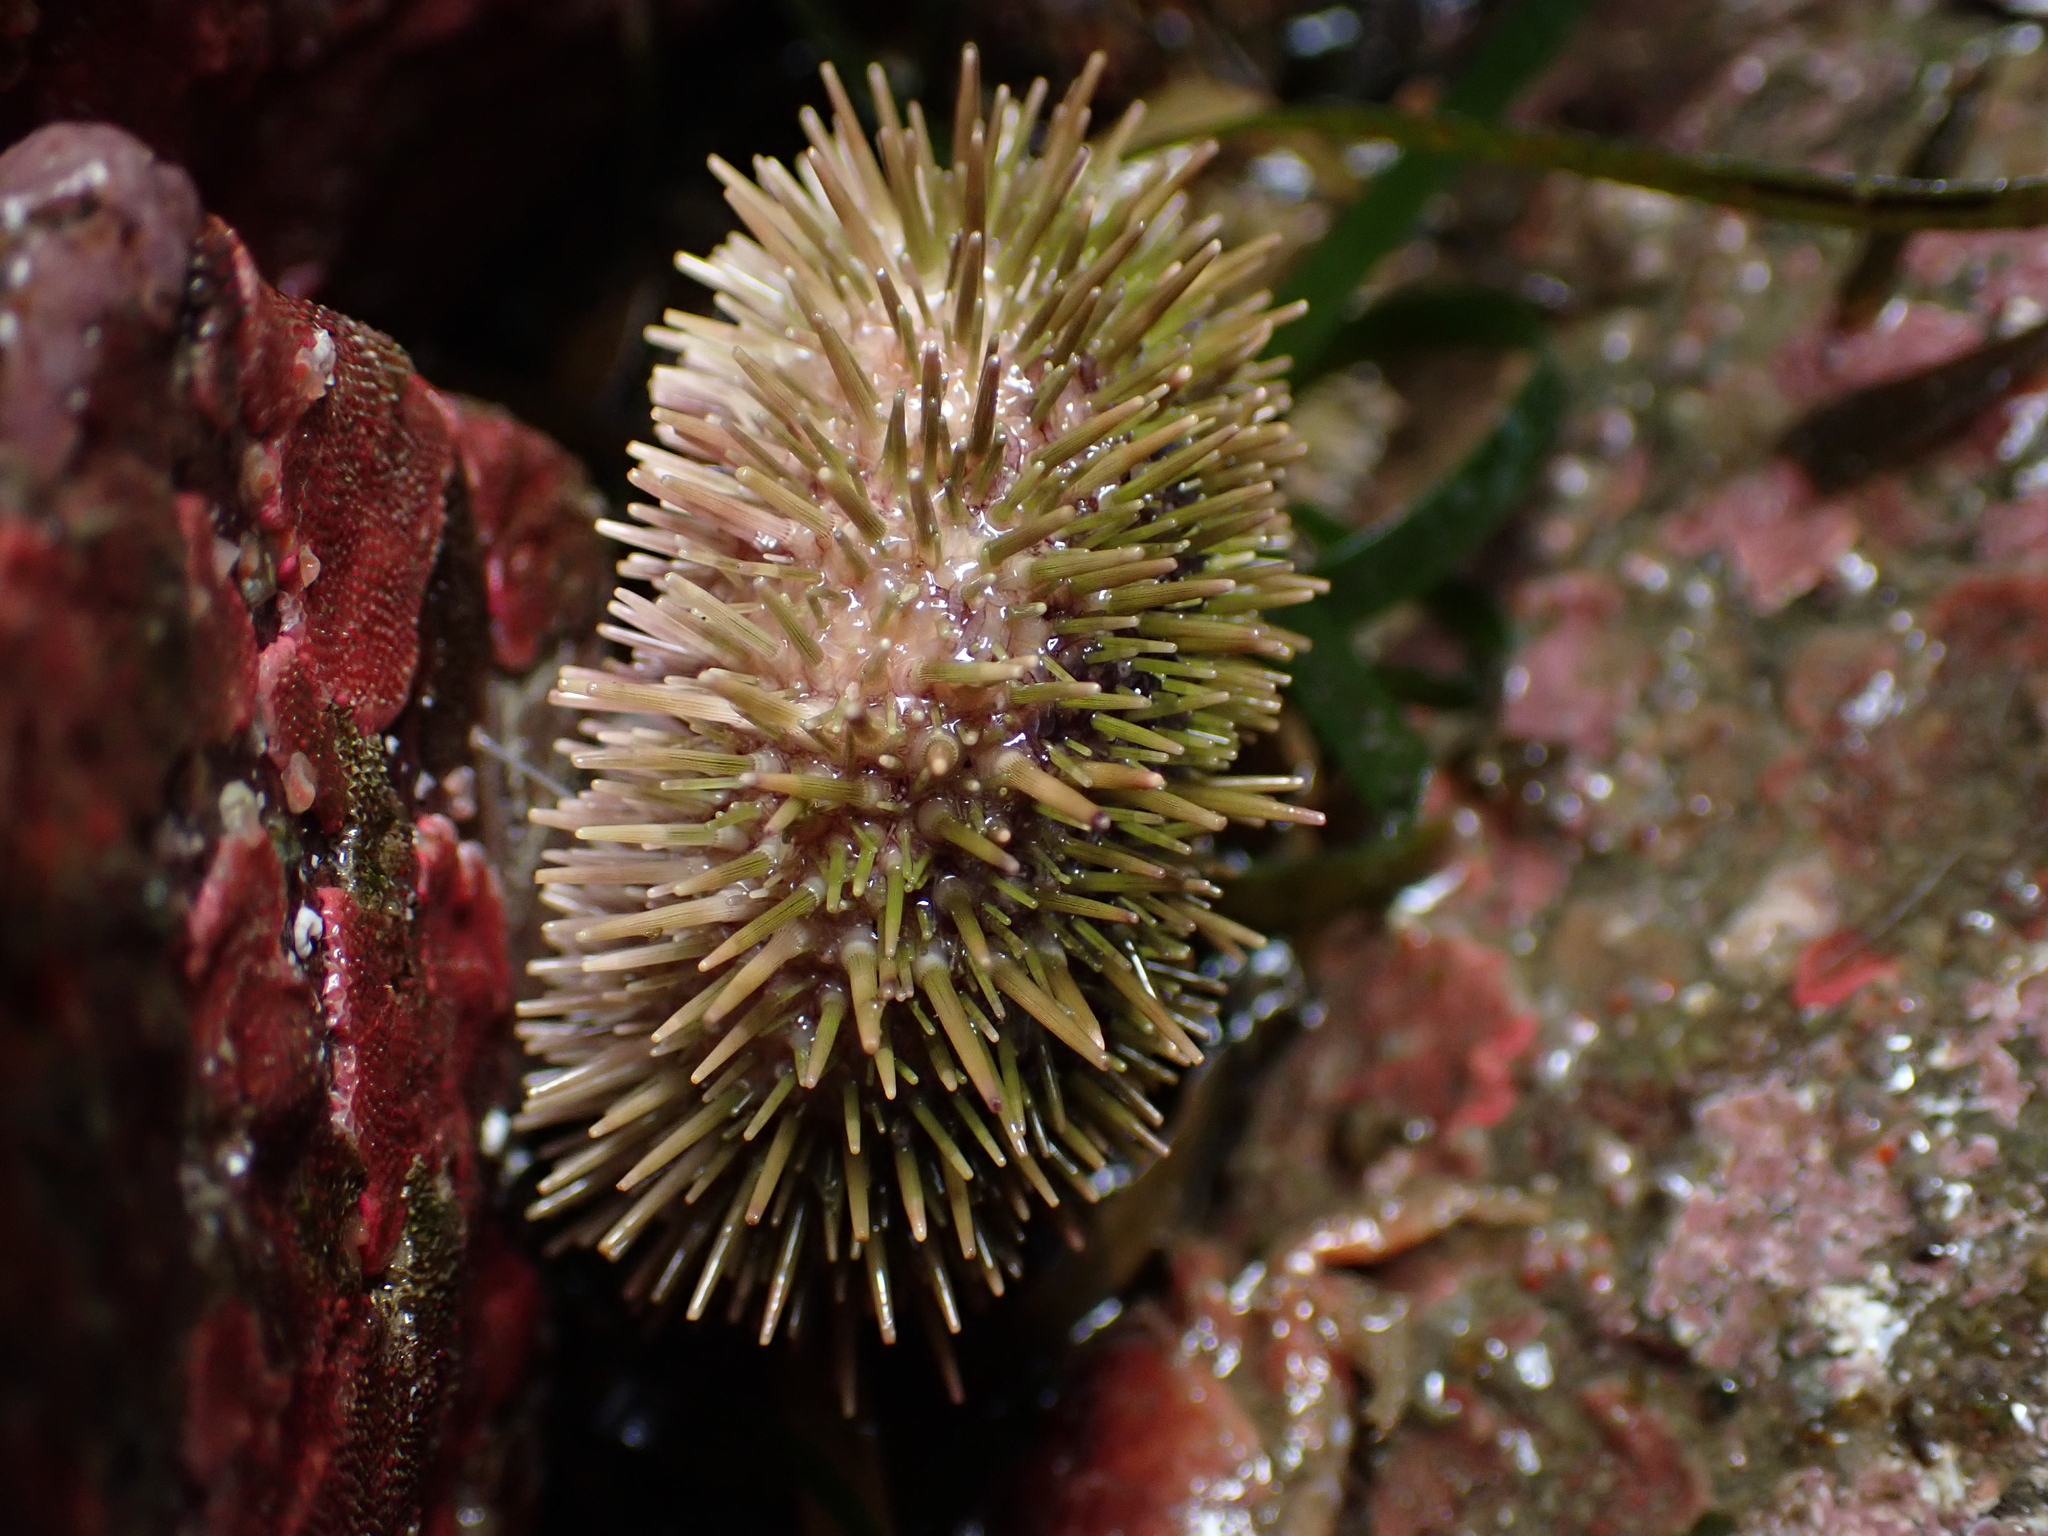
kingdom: Animalia
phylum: Echinodermata
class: Echinoidea
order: Camarodonta
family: Strongylocentrotidae
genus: Strongylocentrotus
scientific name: Strongylocentrotus droebachiensis
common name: Northern sea urchin
